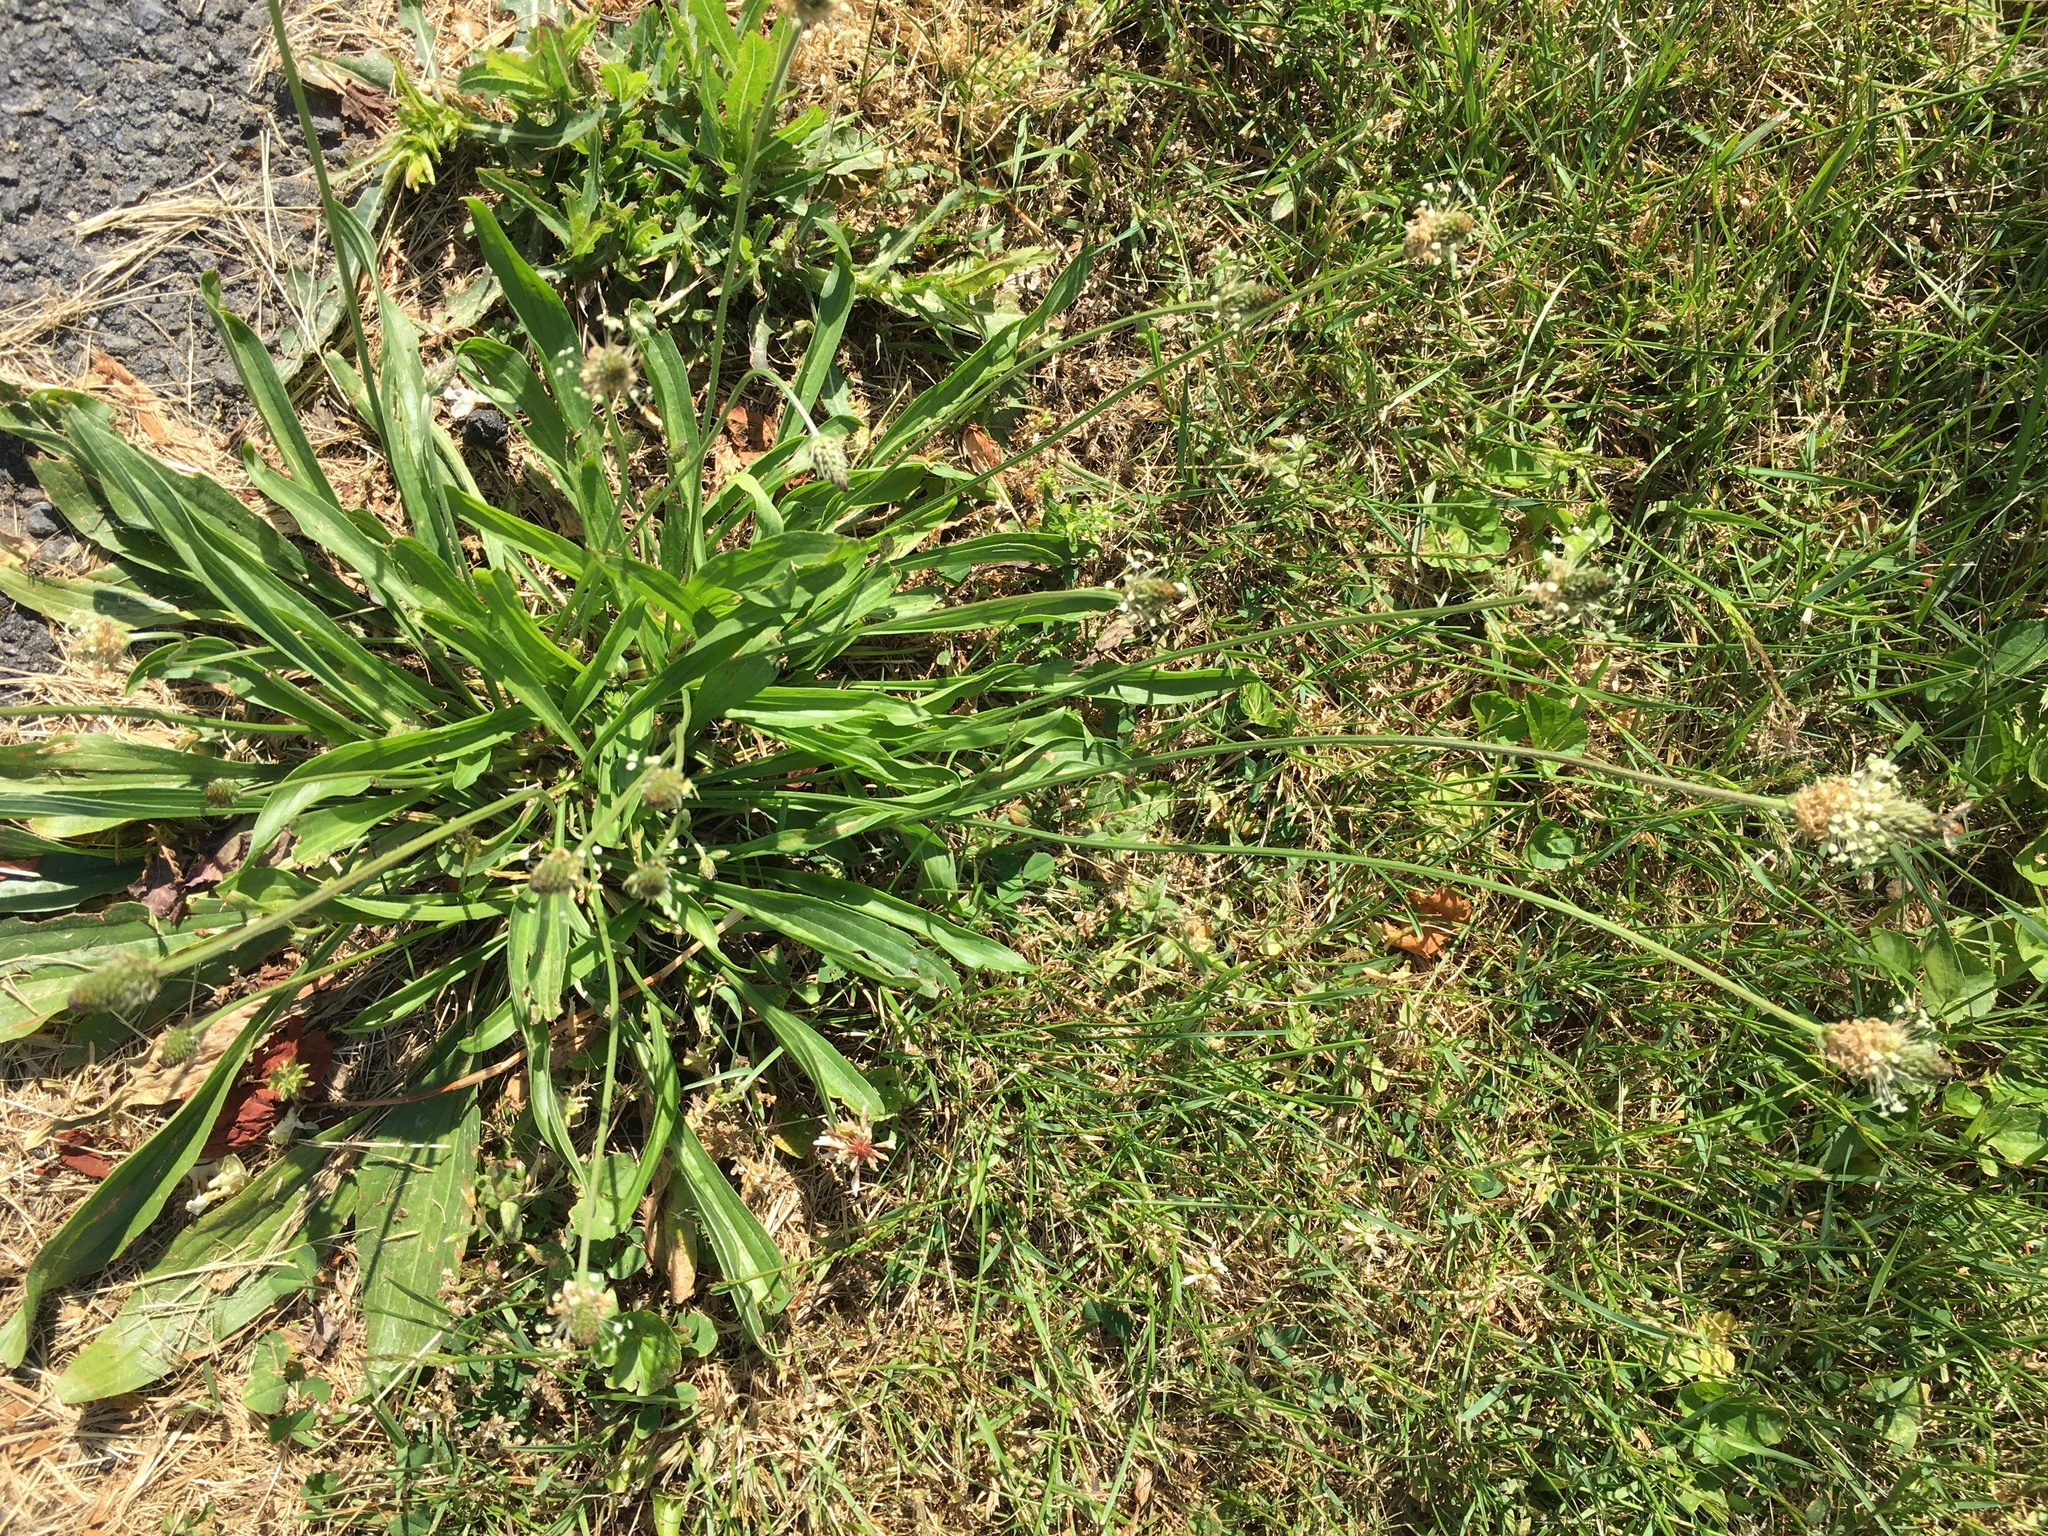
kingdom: Plantae
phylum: Tracheophyta
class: Magnoliopsida
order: Lamiales
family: Plantaginaceae
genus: Plantago
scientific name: Plantago lanceolata
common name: Ribwort plantain
